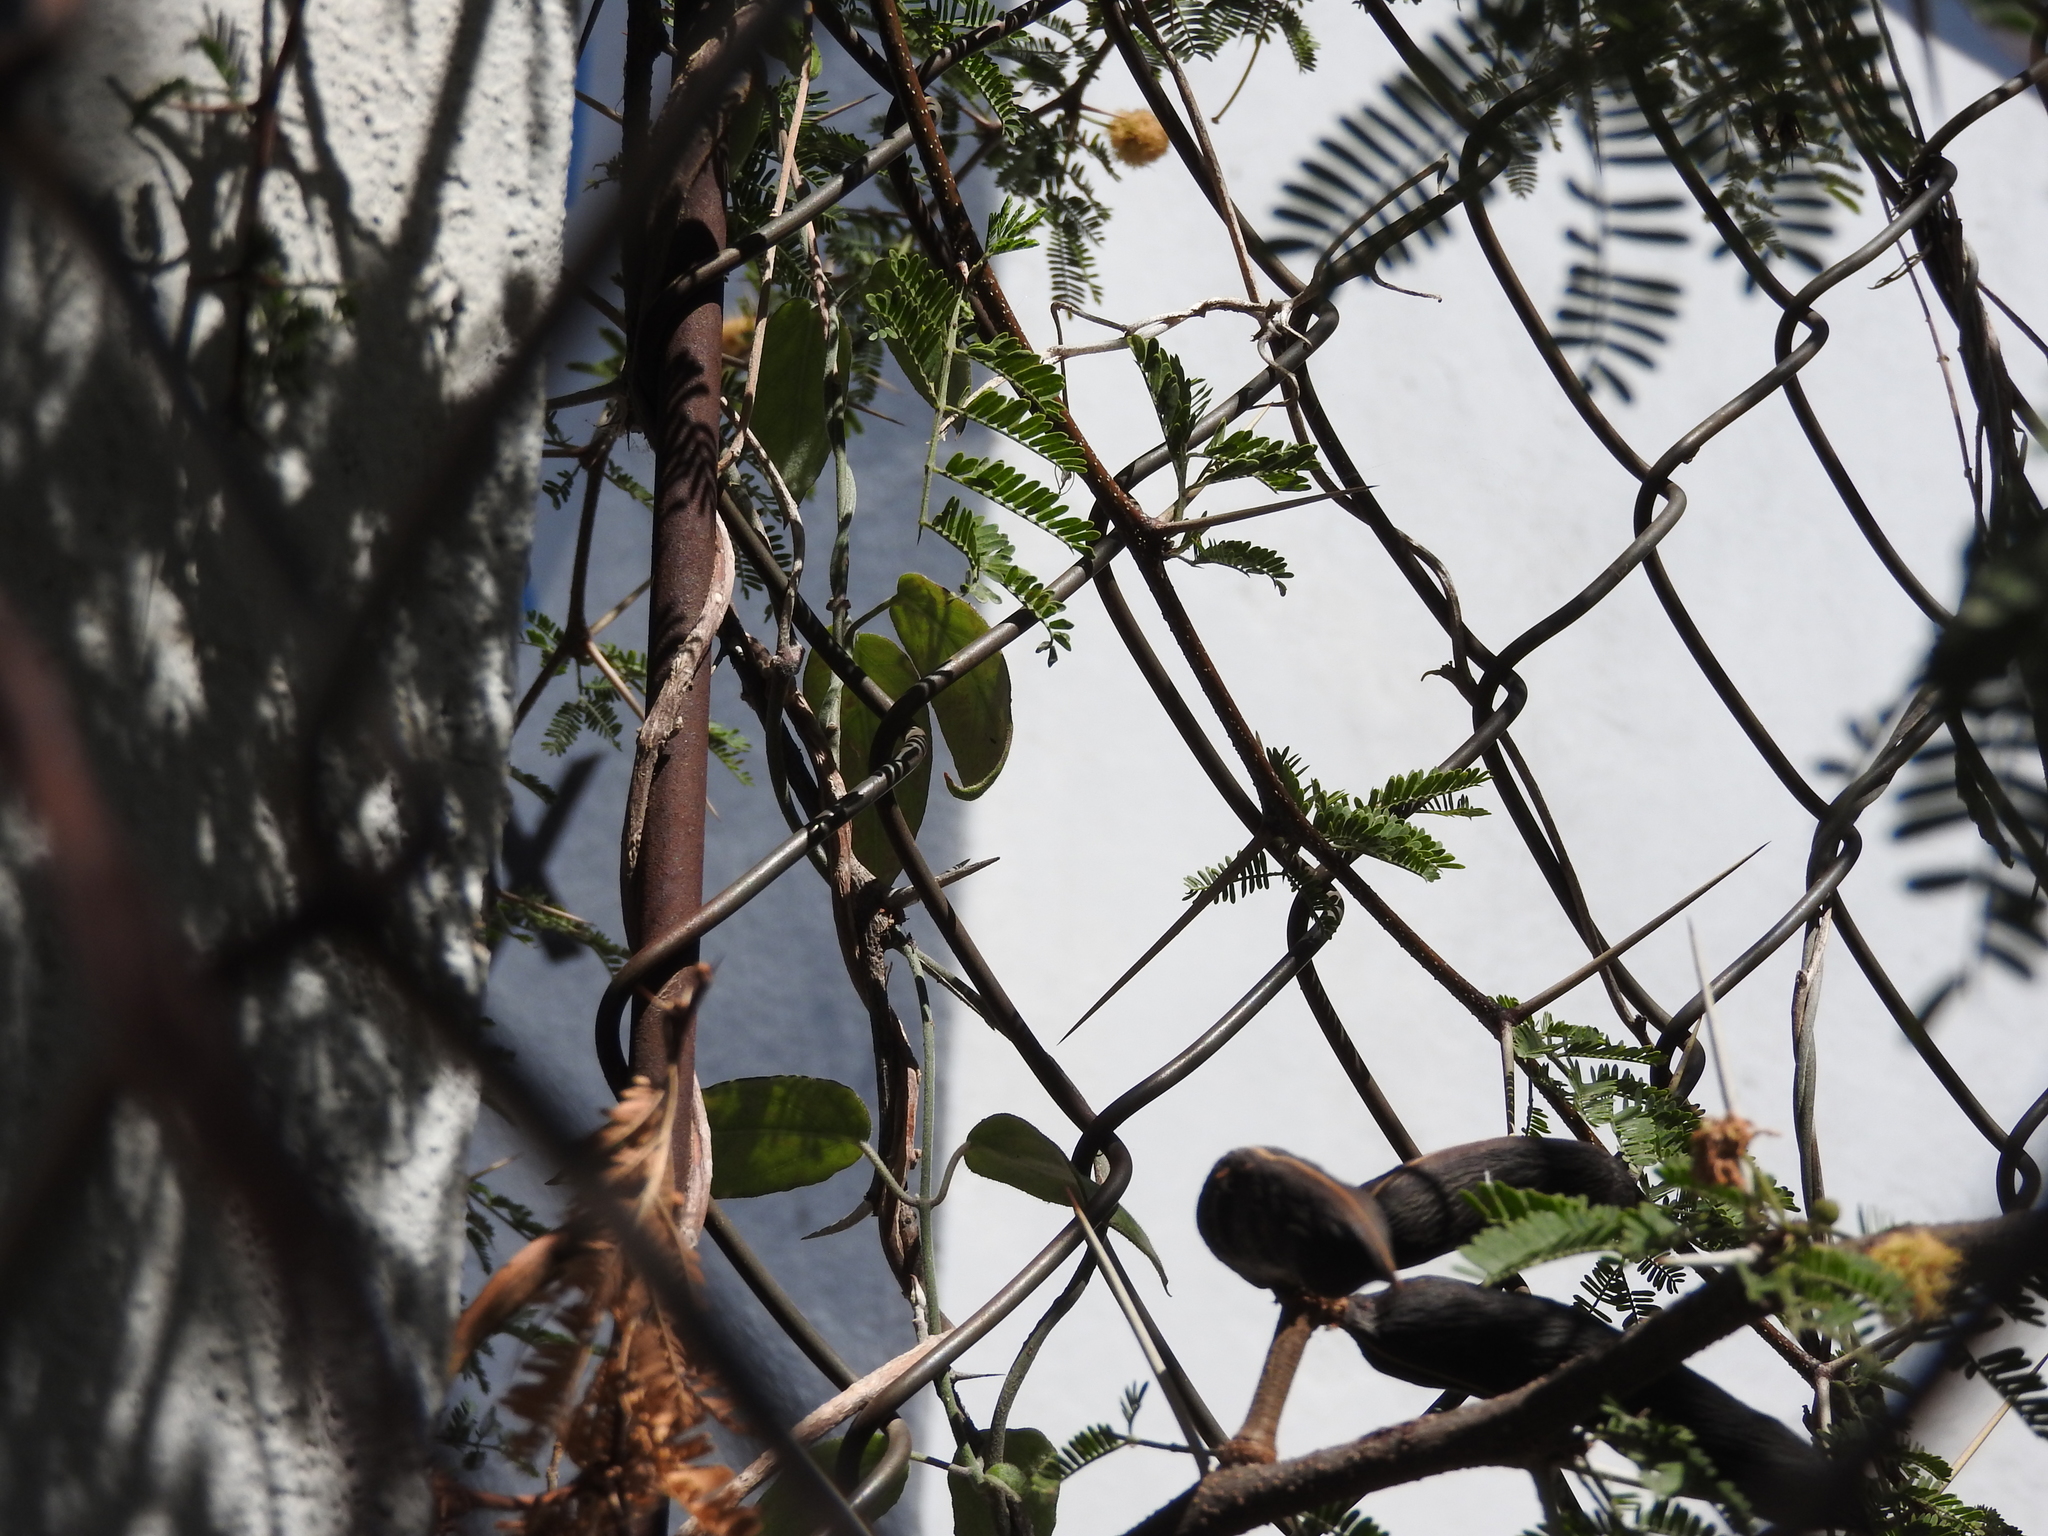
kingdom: Plantae
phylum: Tracheophyta
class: Magnoliopsida
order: Fabales
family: Fabaceae
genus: Vachellia
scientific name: Vachellia farnesiana
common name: Sweet acacia
